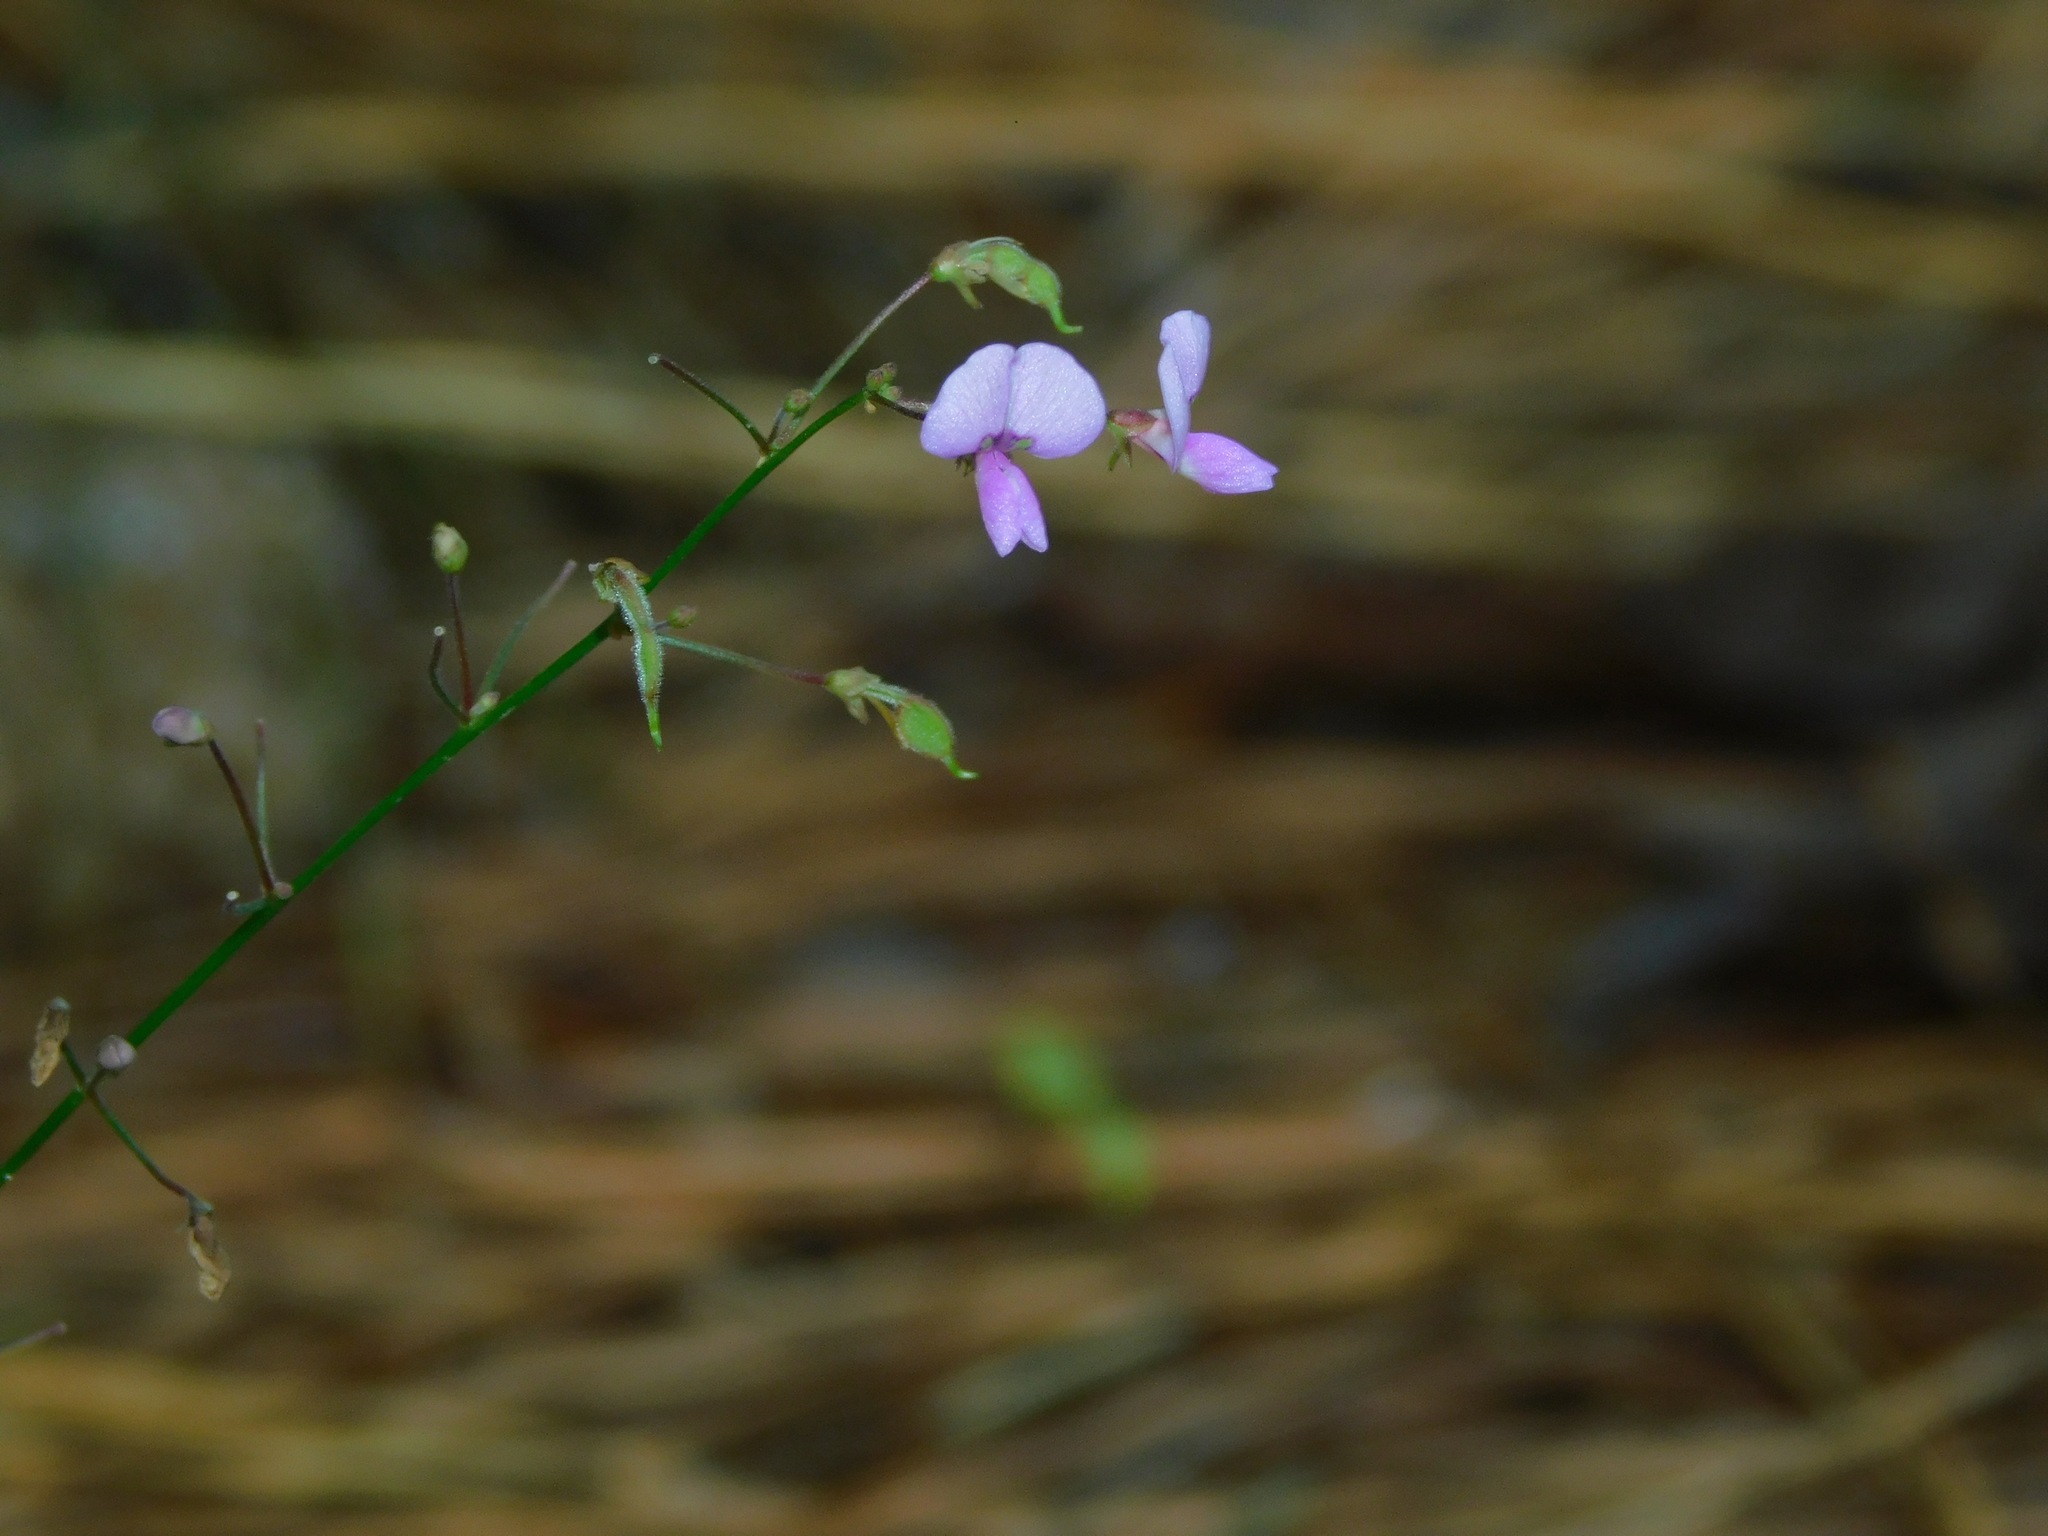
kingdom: Plantae
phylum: Tracheophyta
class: Magnoliopsida
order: Fabales
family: Fabaceae
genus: Desmodium
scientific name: Desmodium marilandicum
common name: Maryland tick-trefoil
